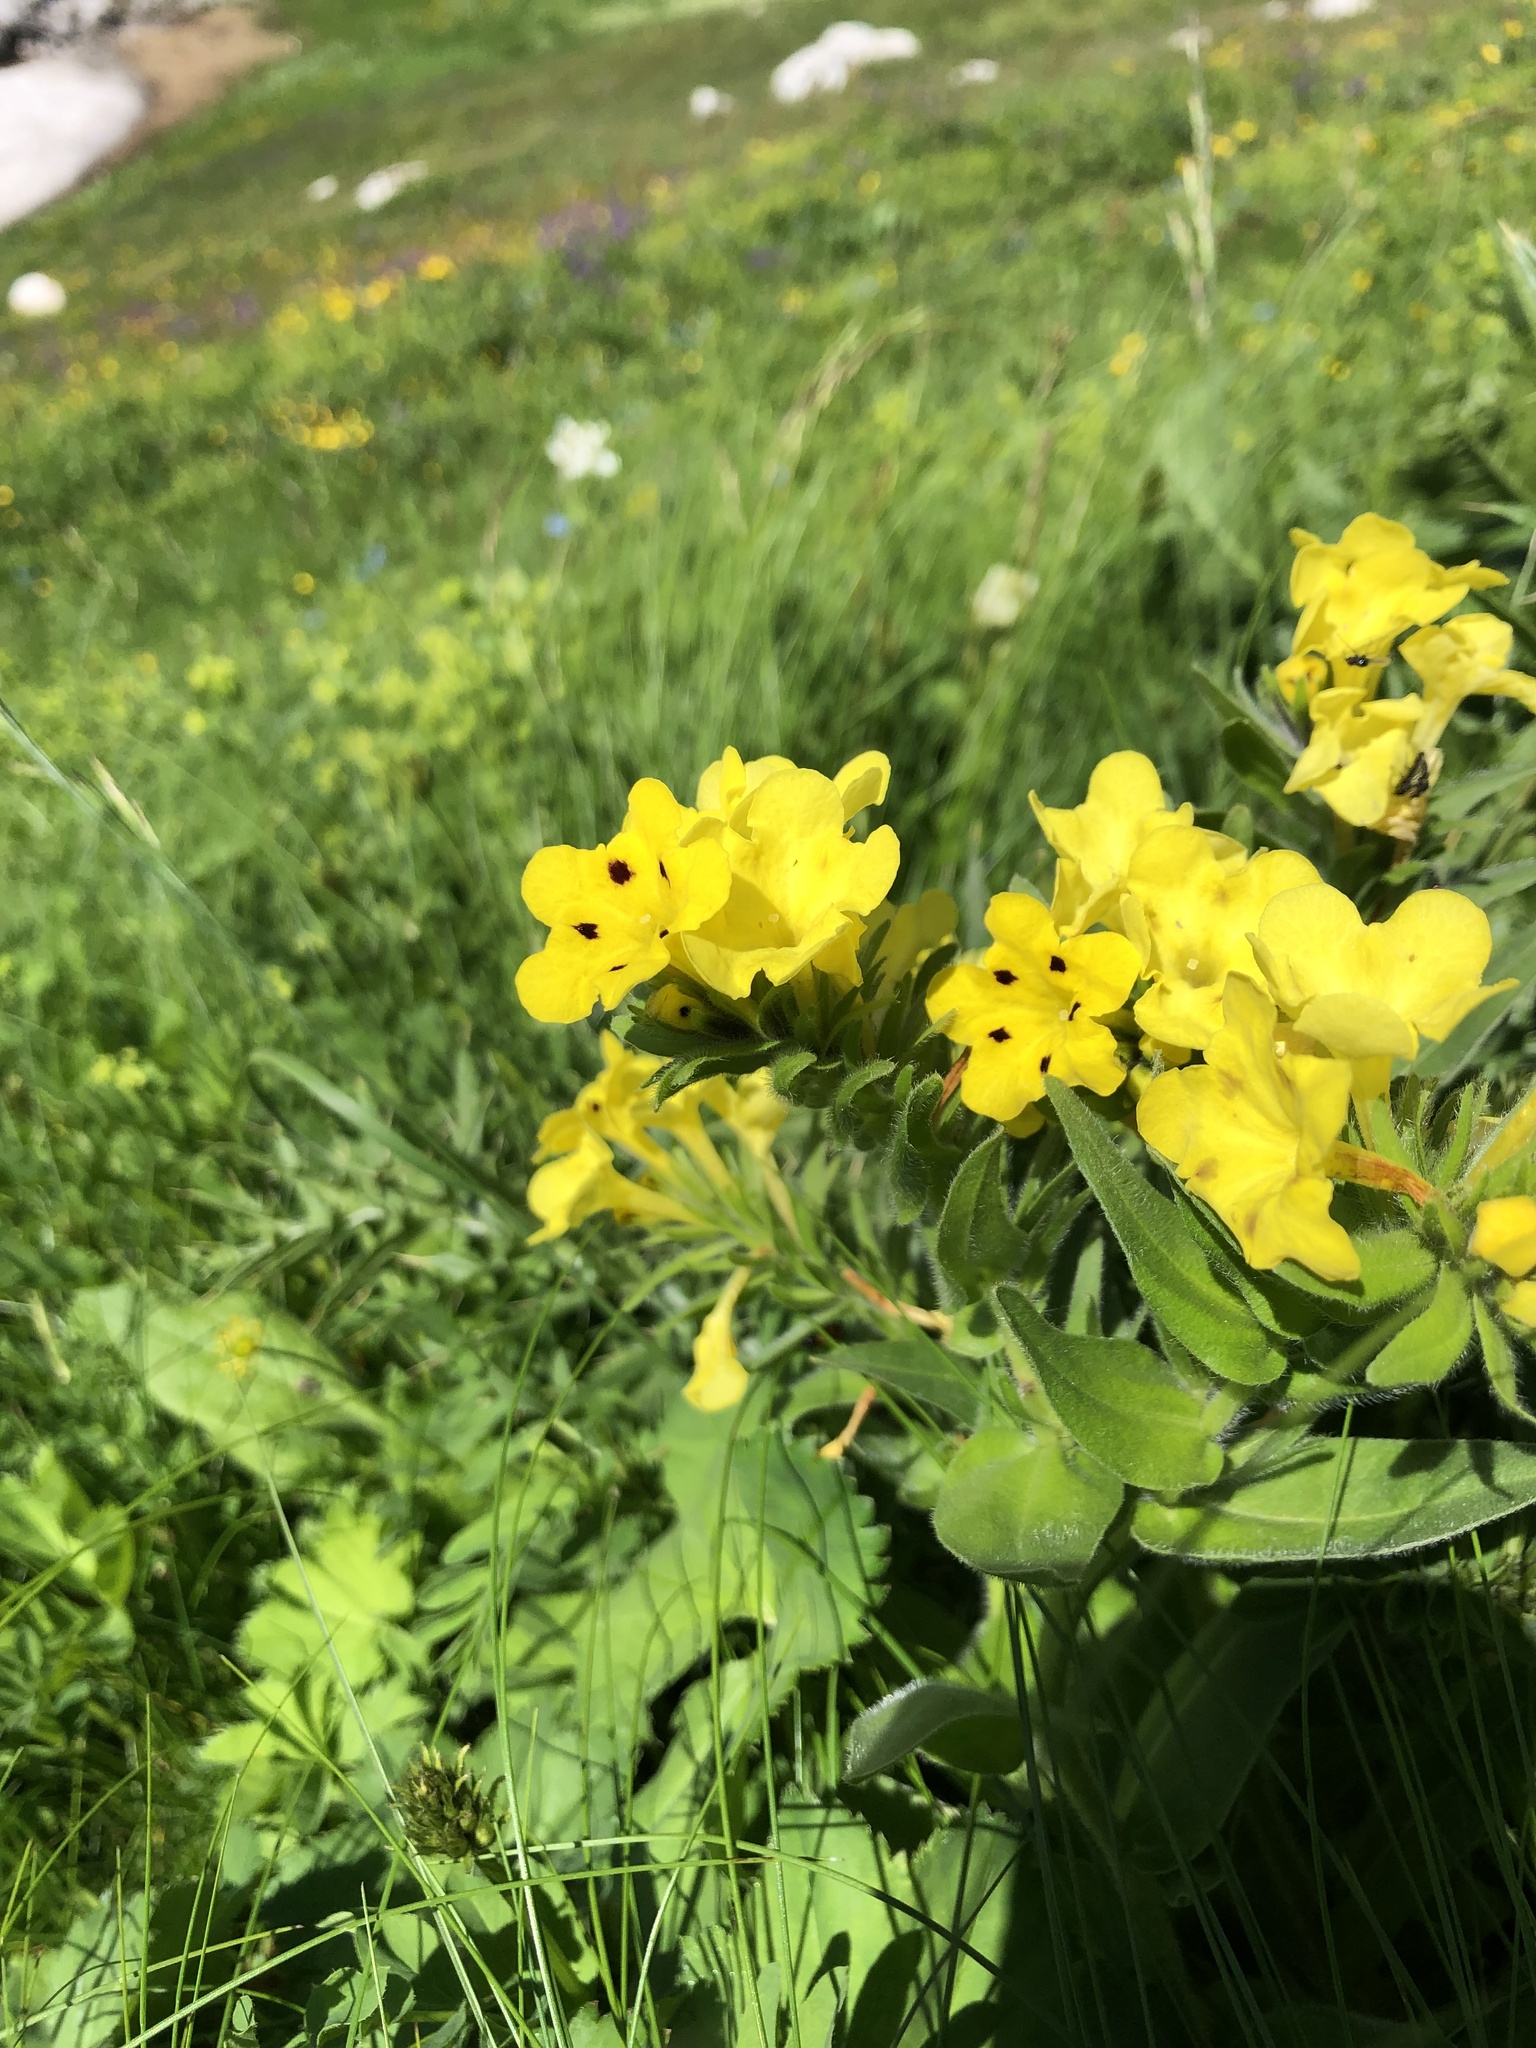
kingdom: Plantae
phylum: Tracheophyta
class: Magnoliopsida
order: Boraginales
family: Boraginaceae
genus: Huynhia
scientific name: Huynhia pulchra
